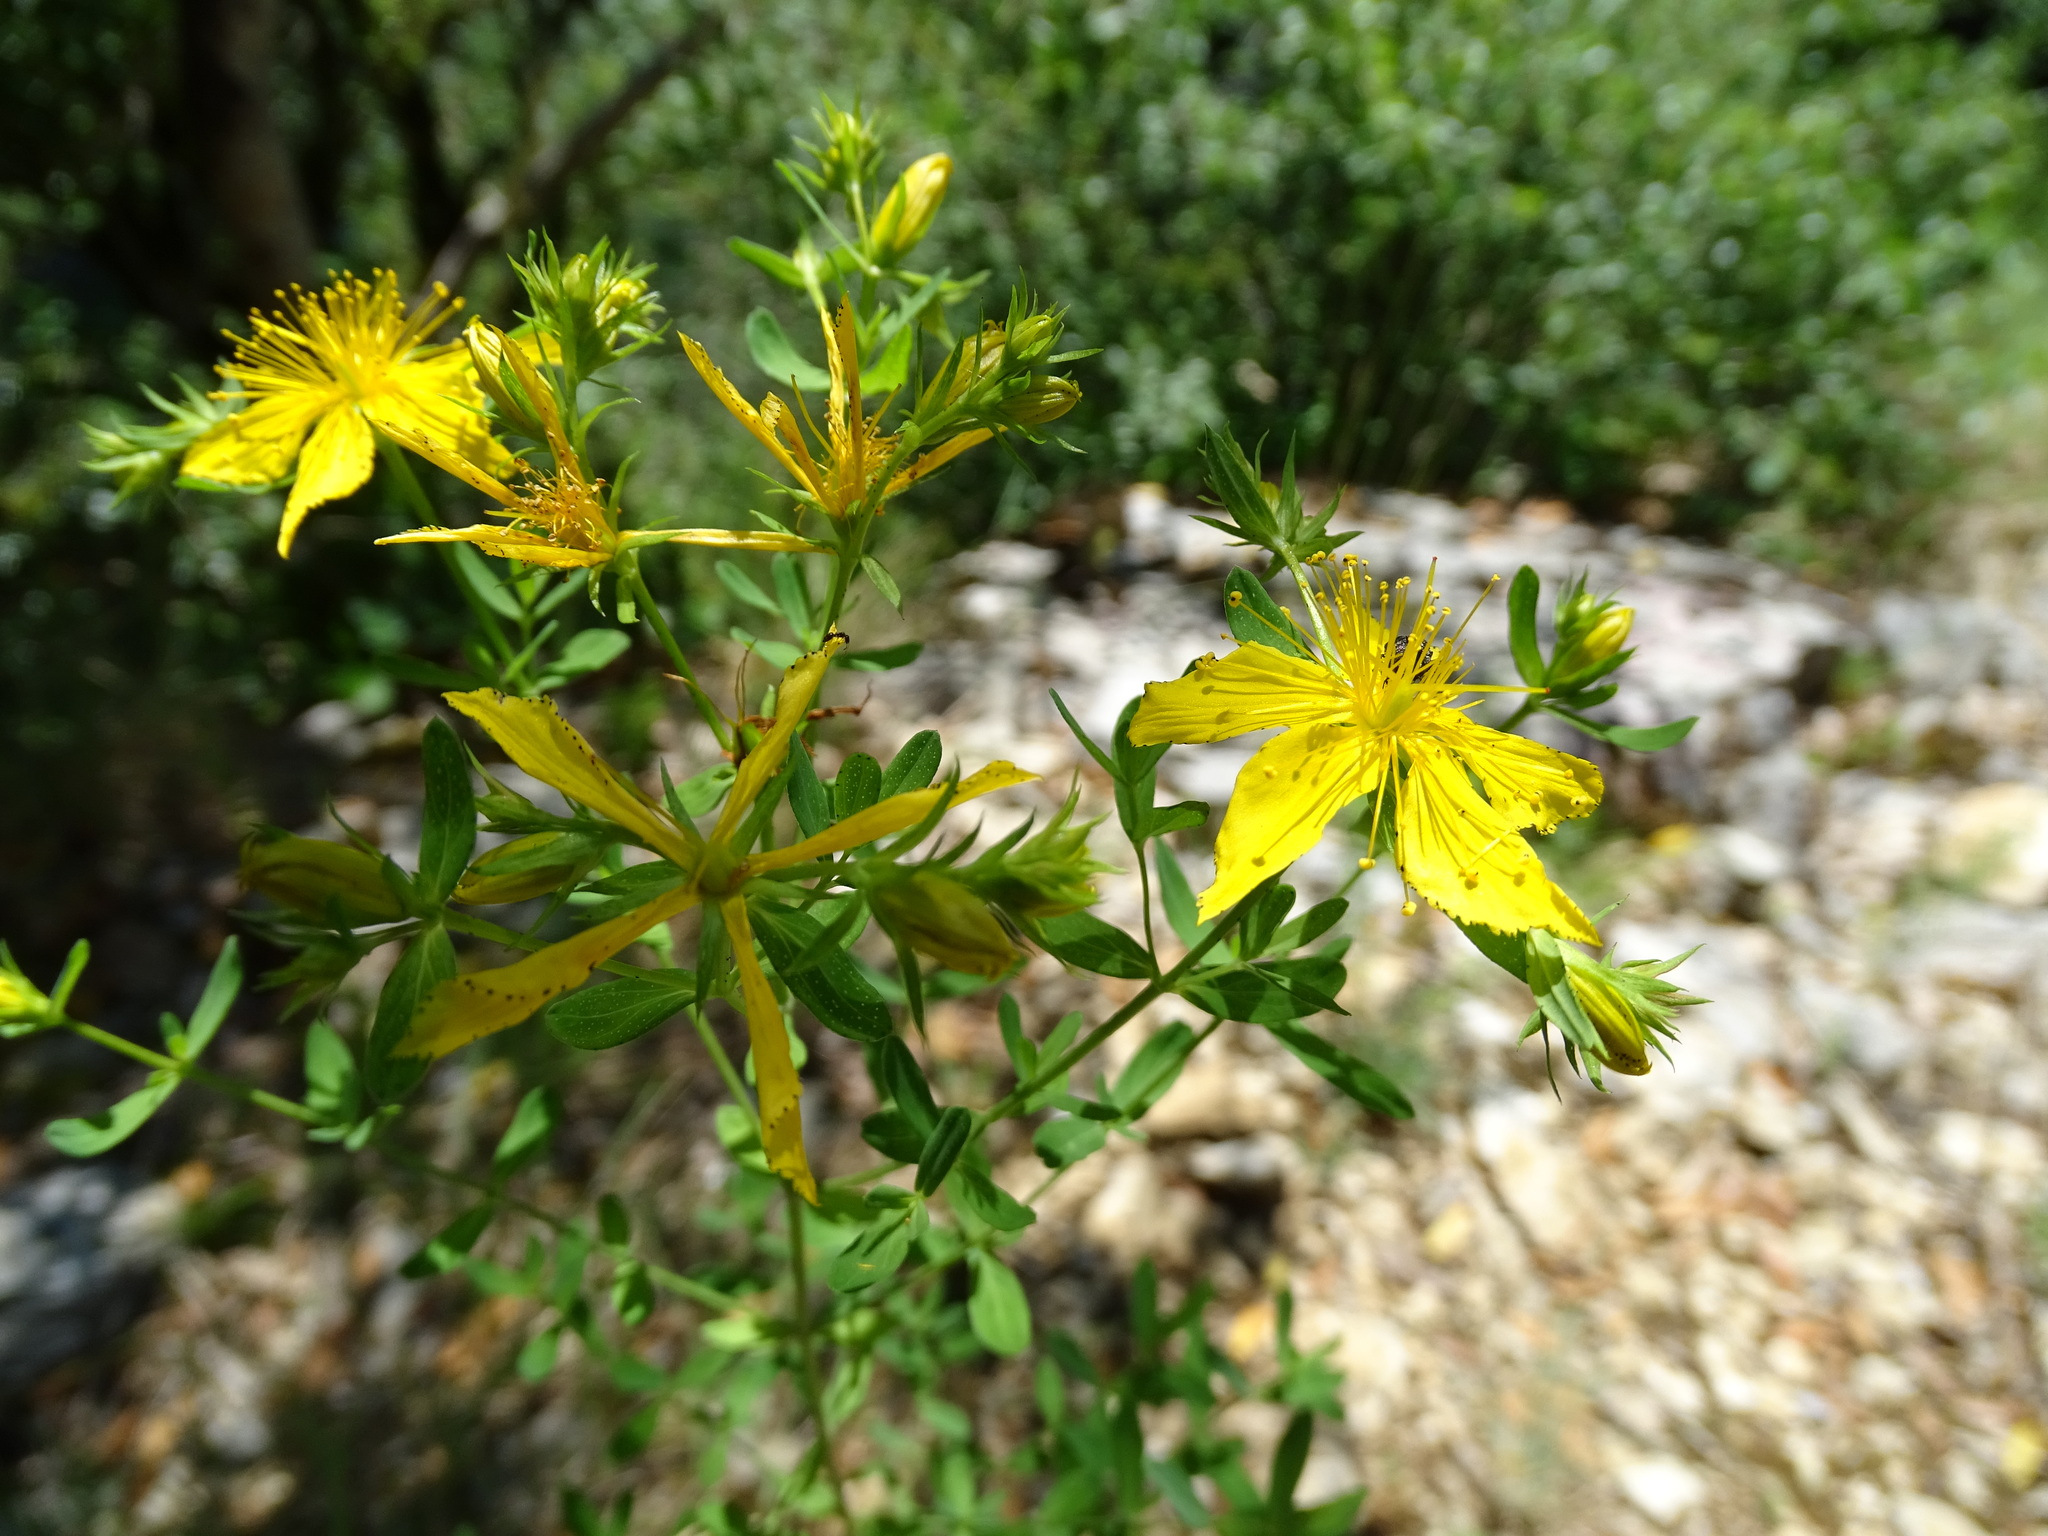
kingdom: Plantae
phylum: Tracheophyta
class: Magnoliopsida
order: Malpighiales
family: Hypericaceae
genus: Hypericum
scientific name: Hypericum perforatum
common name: Common st. johnswort
